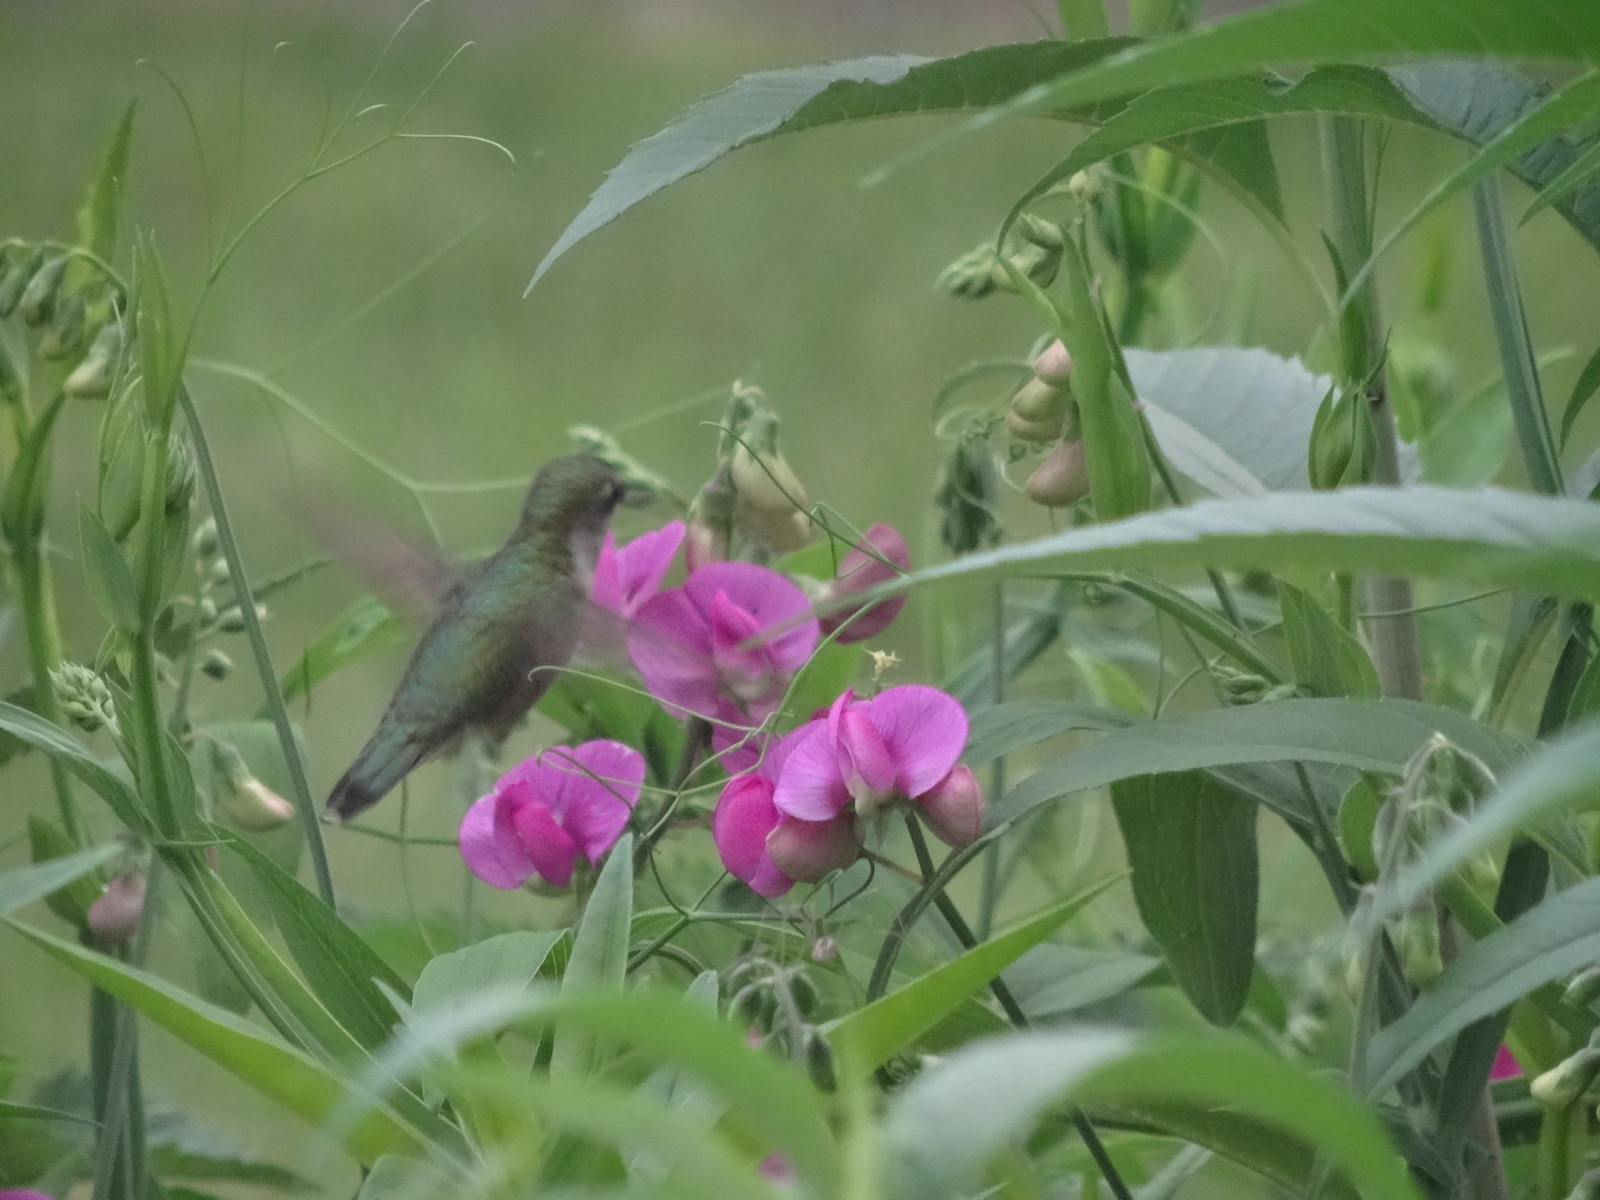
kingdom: Animalia
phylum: Chordata
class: Aves
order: Apodiformes
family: Trochilidae
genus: Archilochus
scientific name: Archilochus colubris
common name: Ruby-throated hummingbird
